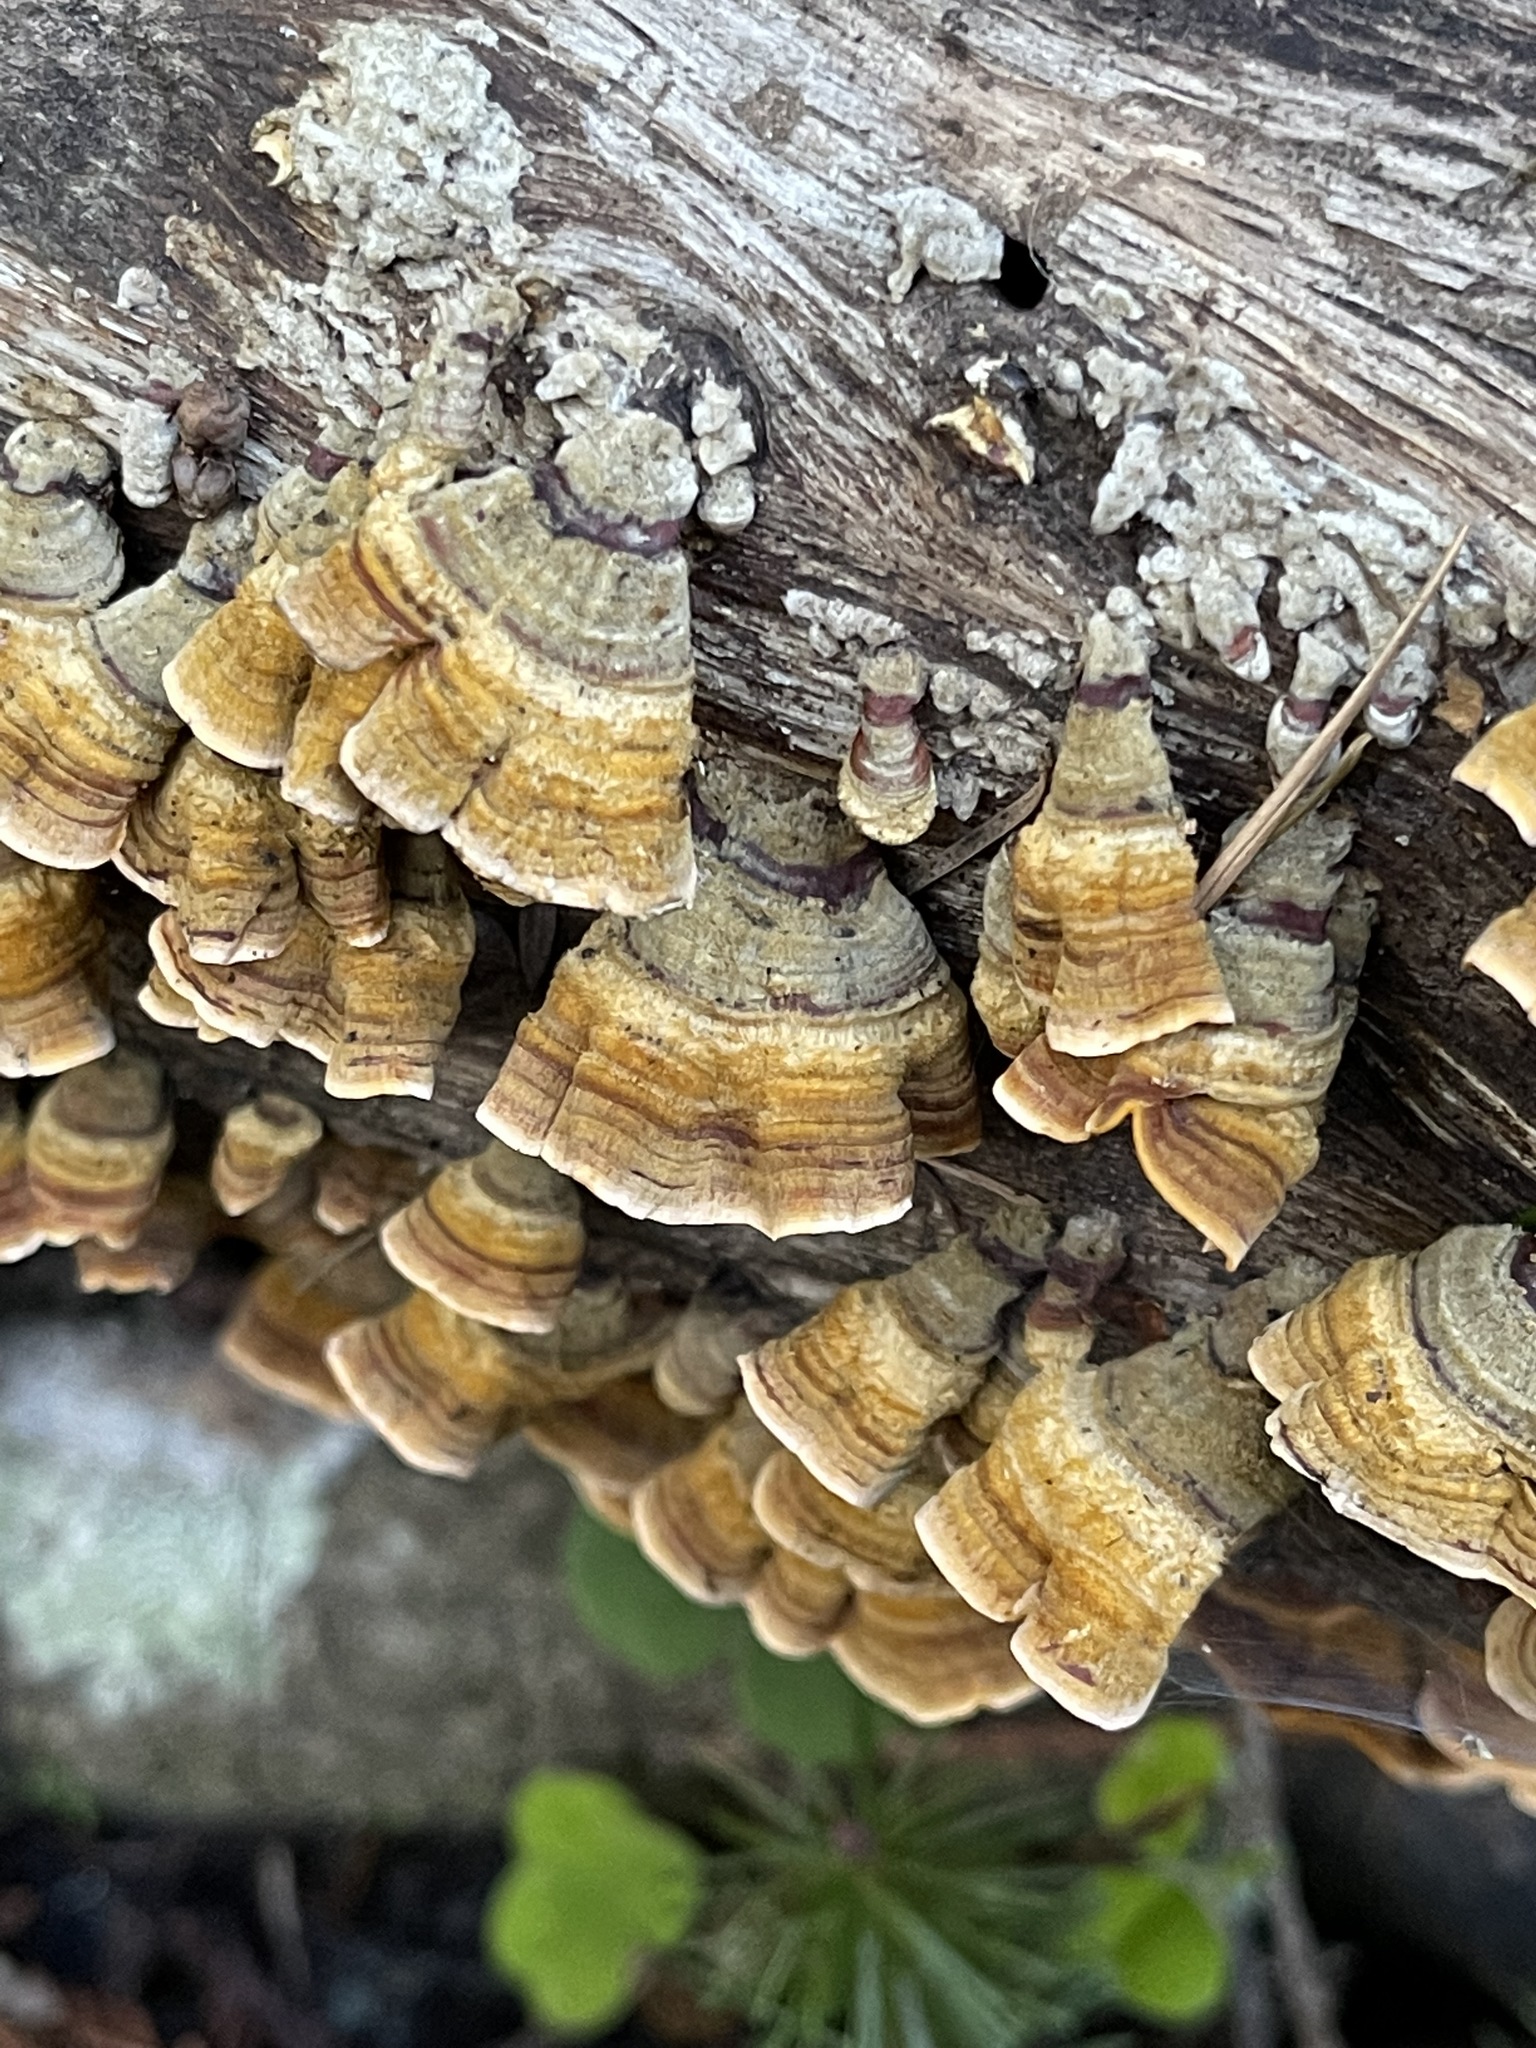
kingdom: Fungi
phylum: Basidiomycota
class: Agaricomycetes
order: Russulales
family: Stereaceae
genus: Stereum
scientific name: Stereum hirsutum
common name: Hairy curtain crust
